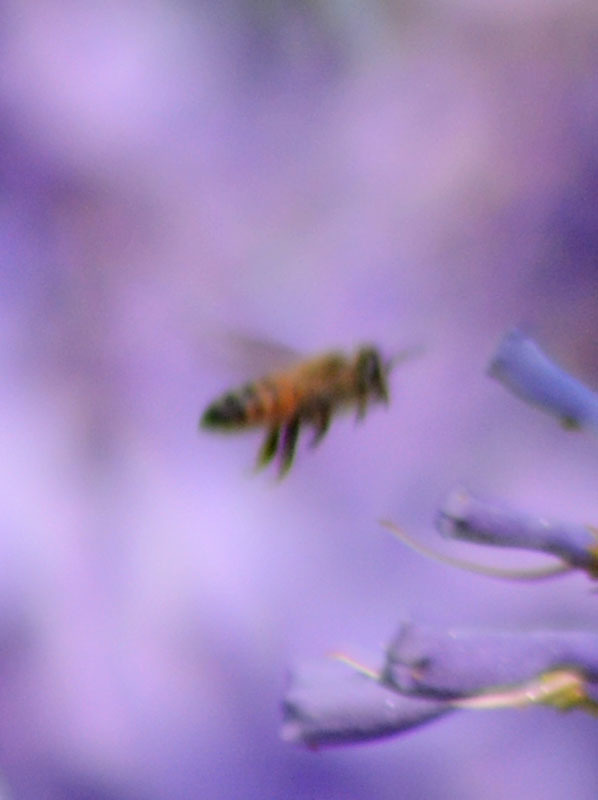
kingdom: Animalia
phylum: Arthropoda
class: Insecta
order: Hymenoptera
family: Apidae
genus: Apis
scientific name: Apis mellifera
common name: Honey bee
